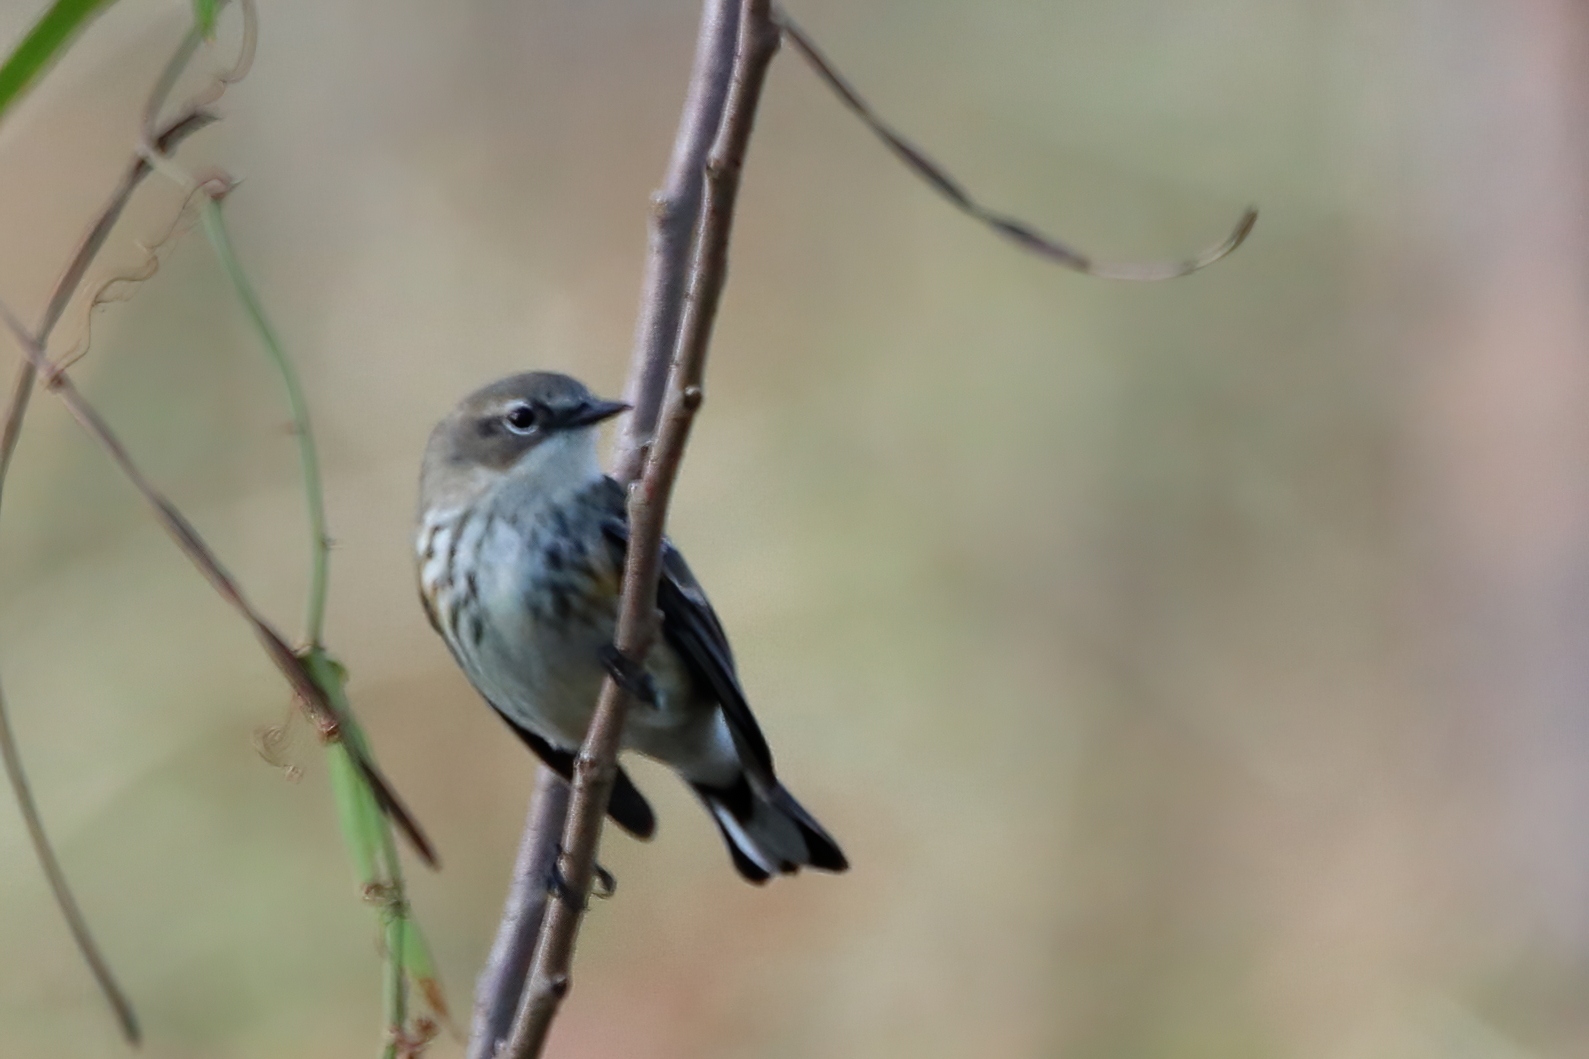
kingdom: Animalia
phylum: Chordata
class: Aves
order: Passeriformes
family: Parulidae
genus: Setophaga
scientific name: Setophaga coronata
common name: Myrtle warbler
